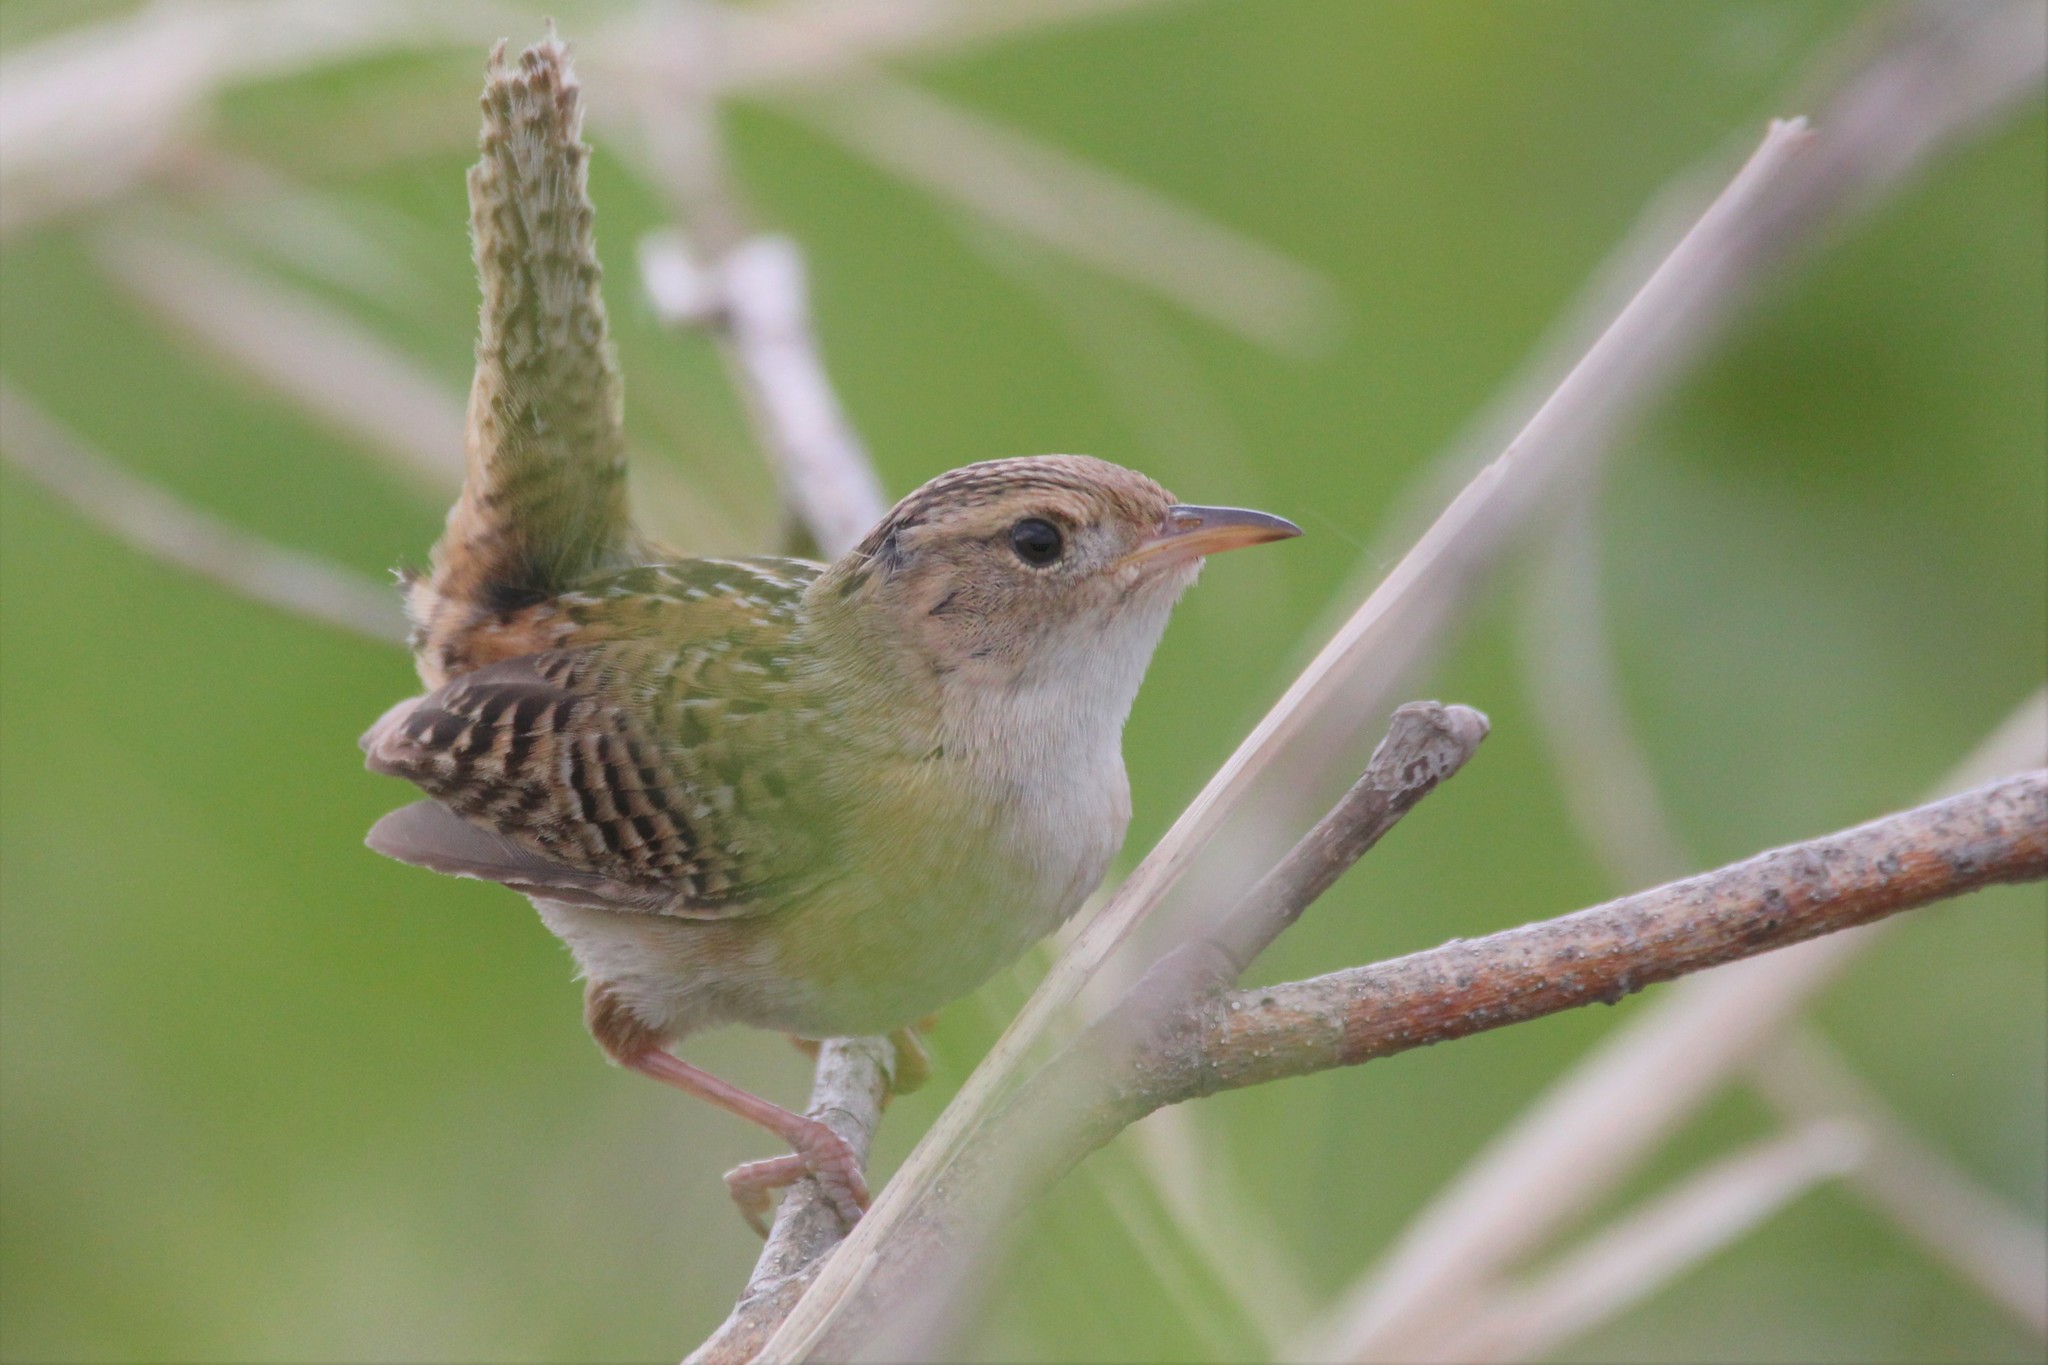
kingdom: Animalia
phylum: Chordata
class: Aves
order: Passeriformes
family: Troglodytidae
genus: Cistothorus
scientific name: Cistothorus platensis
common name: Sedge wren
